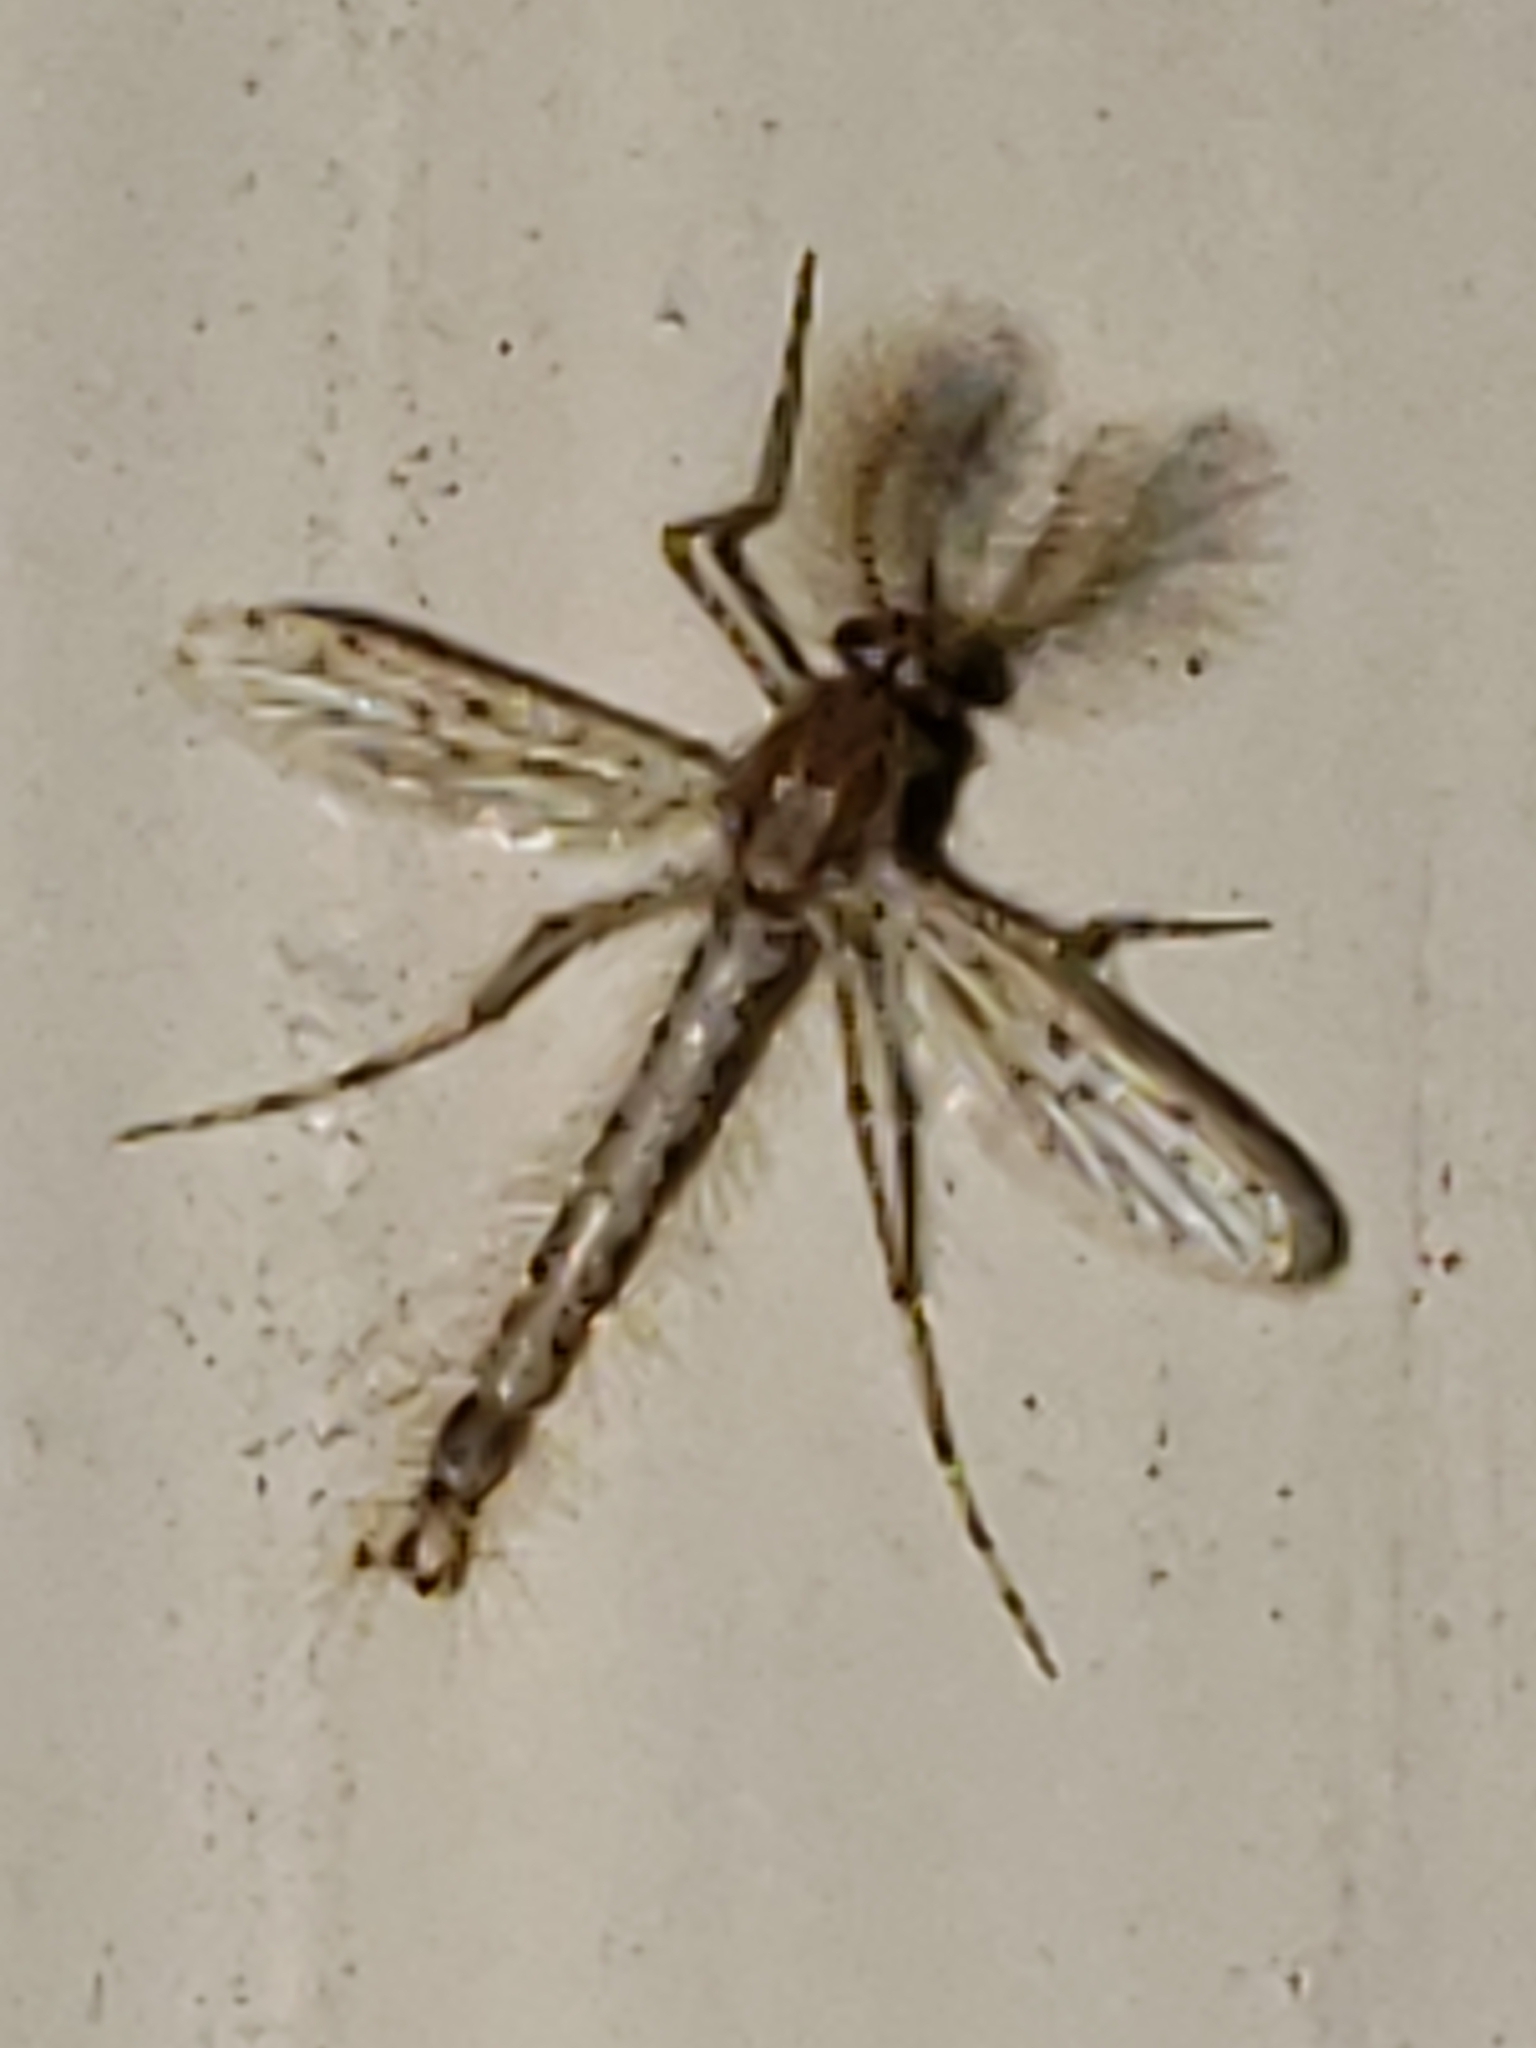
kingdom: Animalia
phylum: Arthropoda
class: Insecta
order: Diptera
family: Chaoboridae
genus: Chaoborus
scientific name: Chaoborus punctipennis
